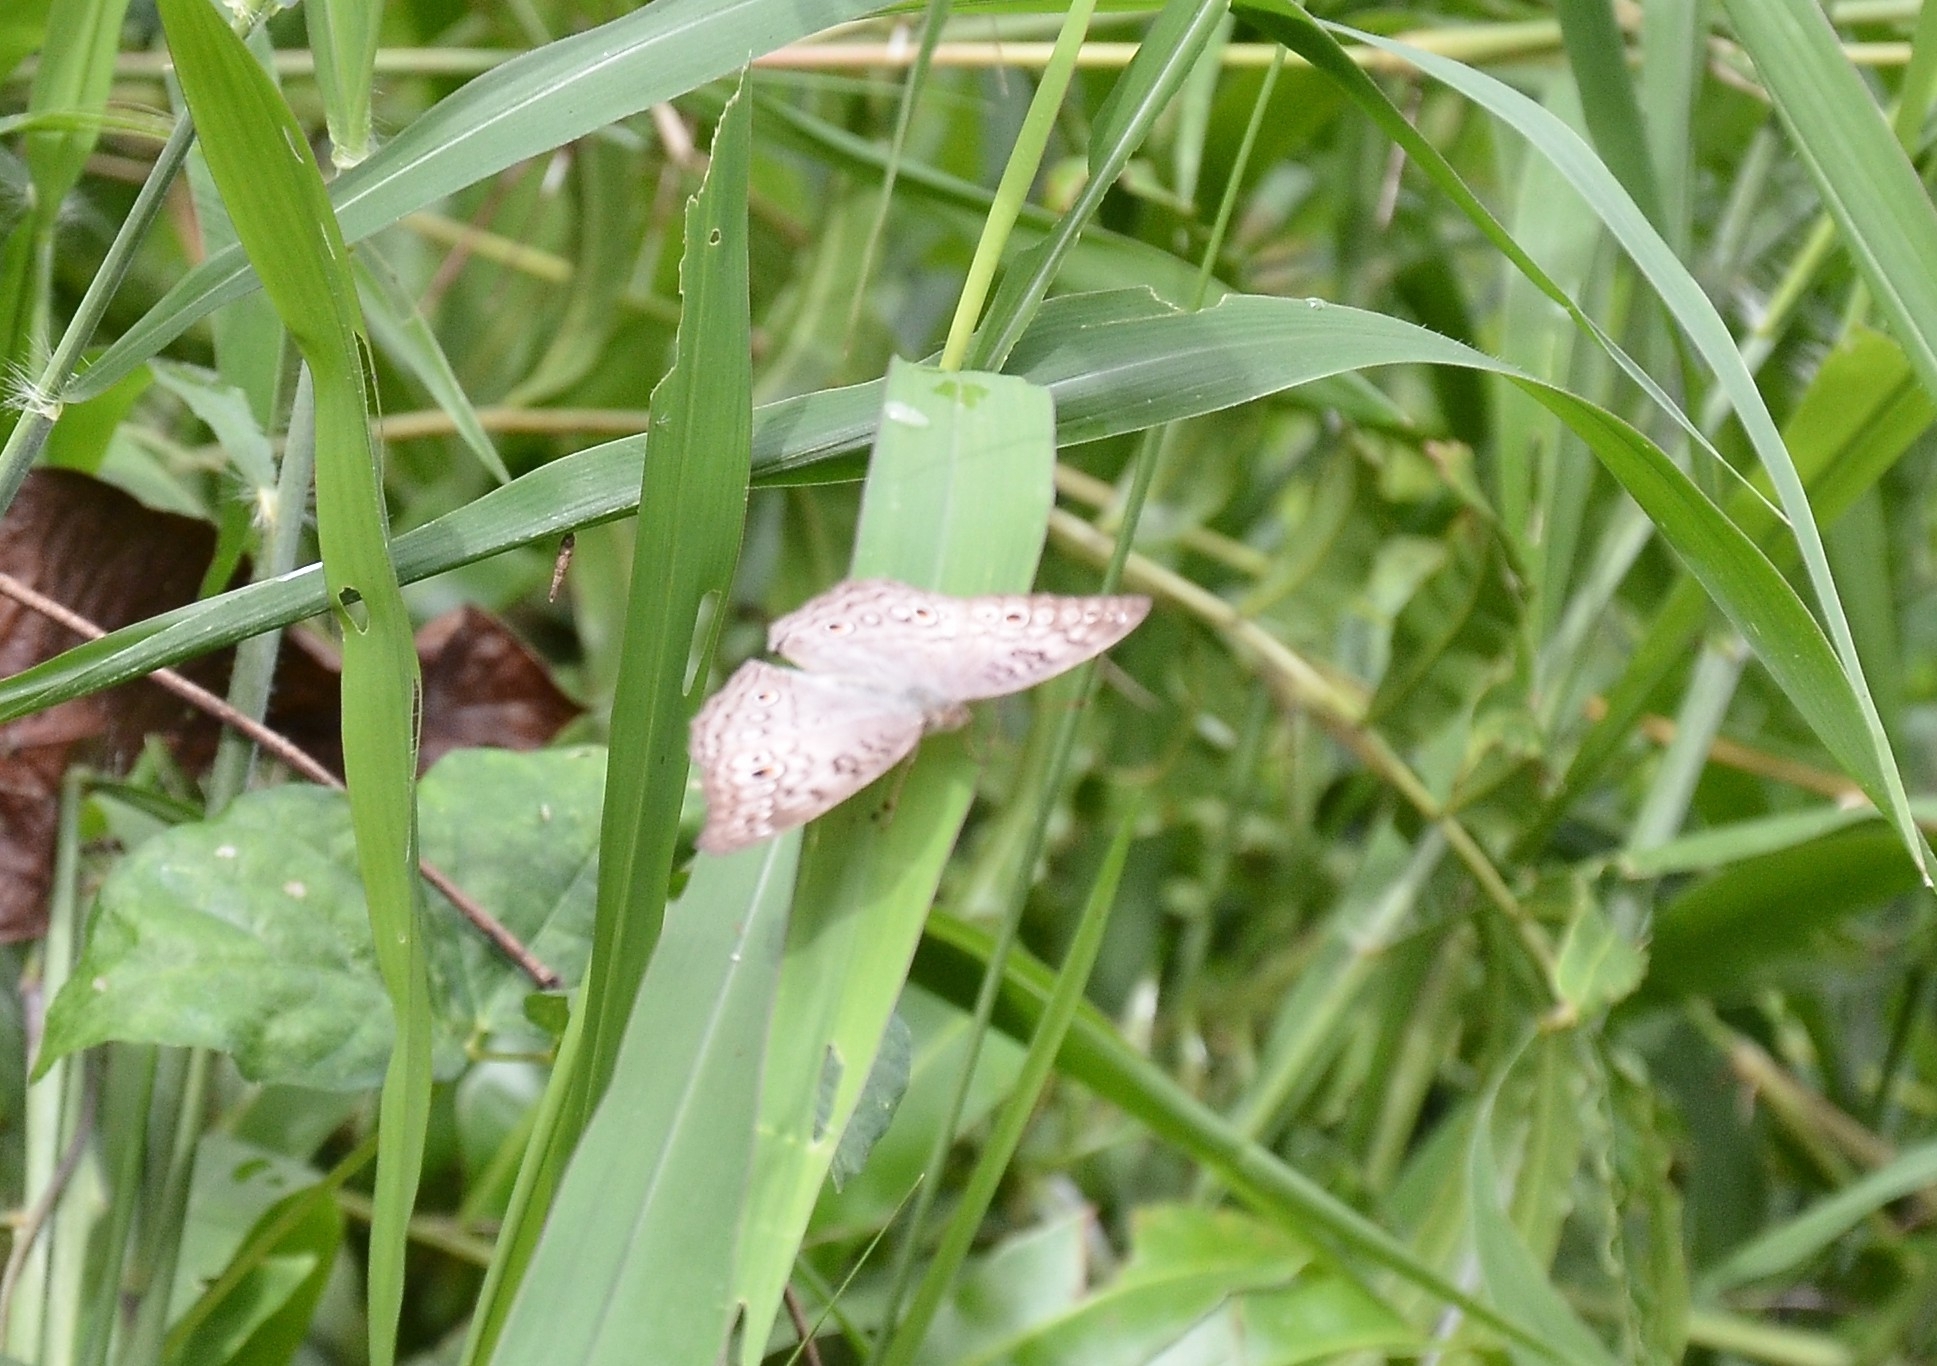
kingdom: Animalia
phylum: Arthropoda
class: Insecta
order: Lepidoptera
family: Nymphalidae
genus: Junonia
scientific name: Junonia atlites
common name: Grey pansy
